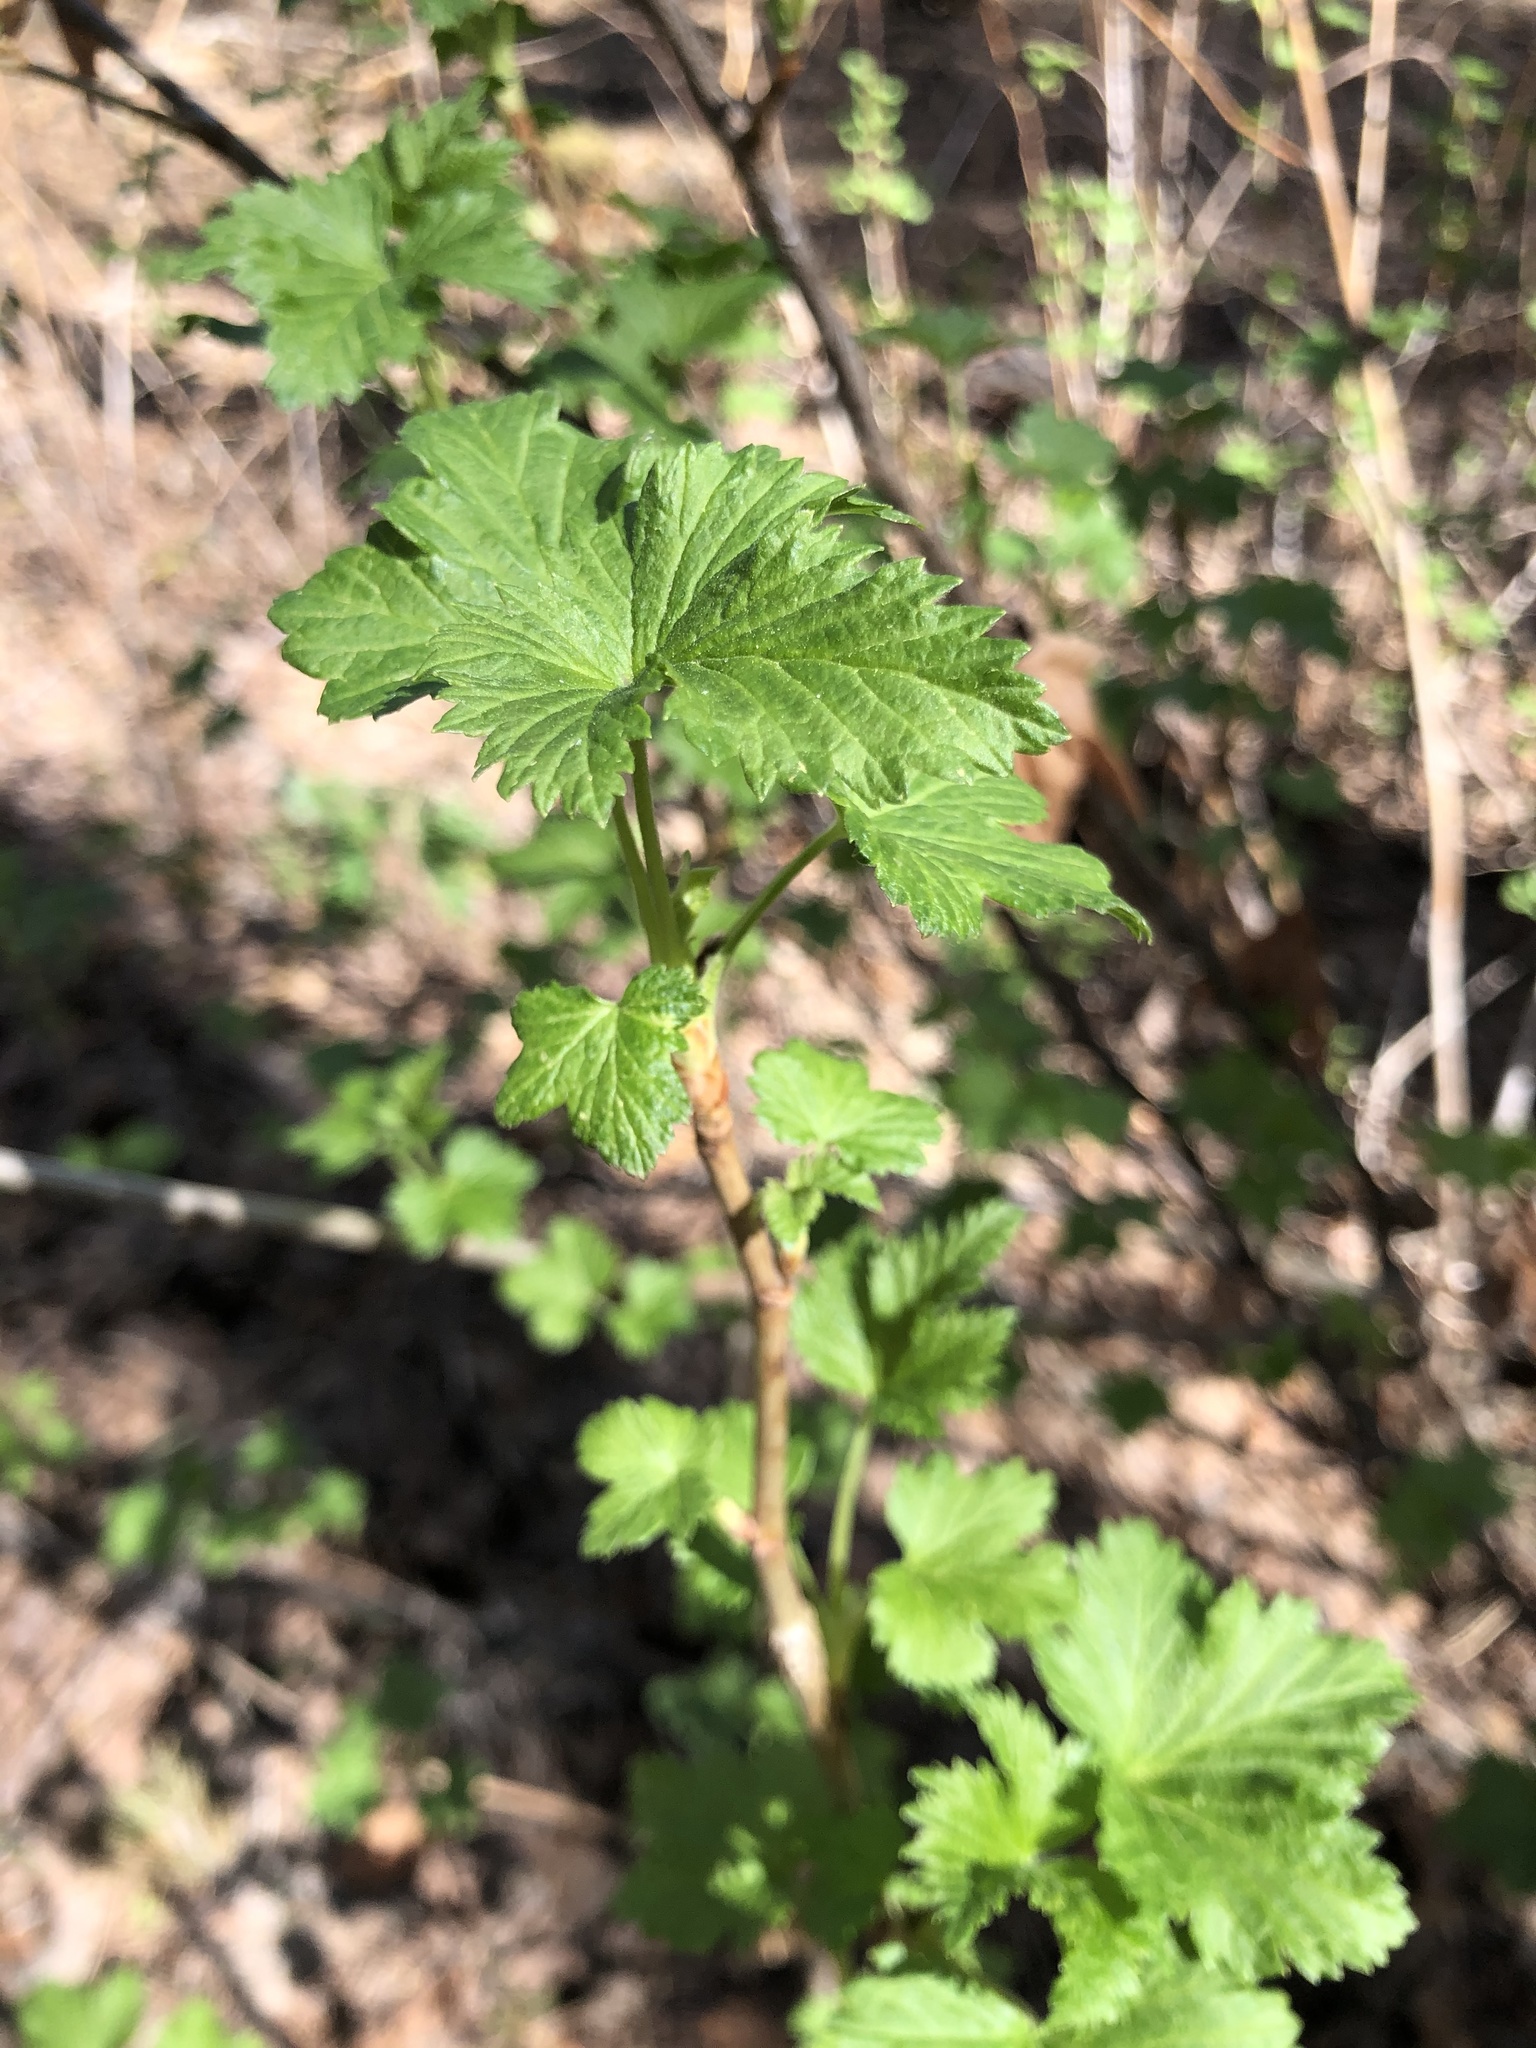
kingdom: Plantae
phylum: Tracheophyta
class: Magnoliopsida
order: Saxifragales
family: Grossulariaceae
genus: Ribes
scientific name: Ribes nigrum
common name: Black currant
